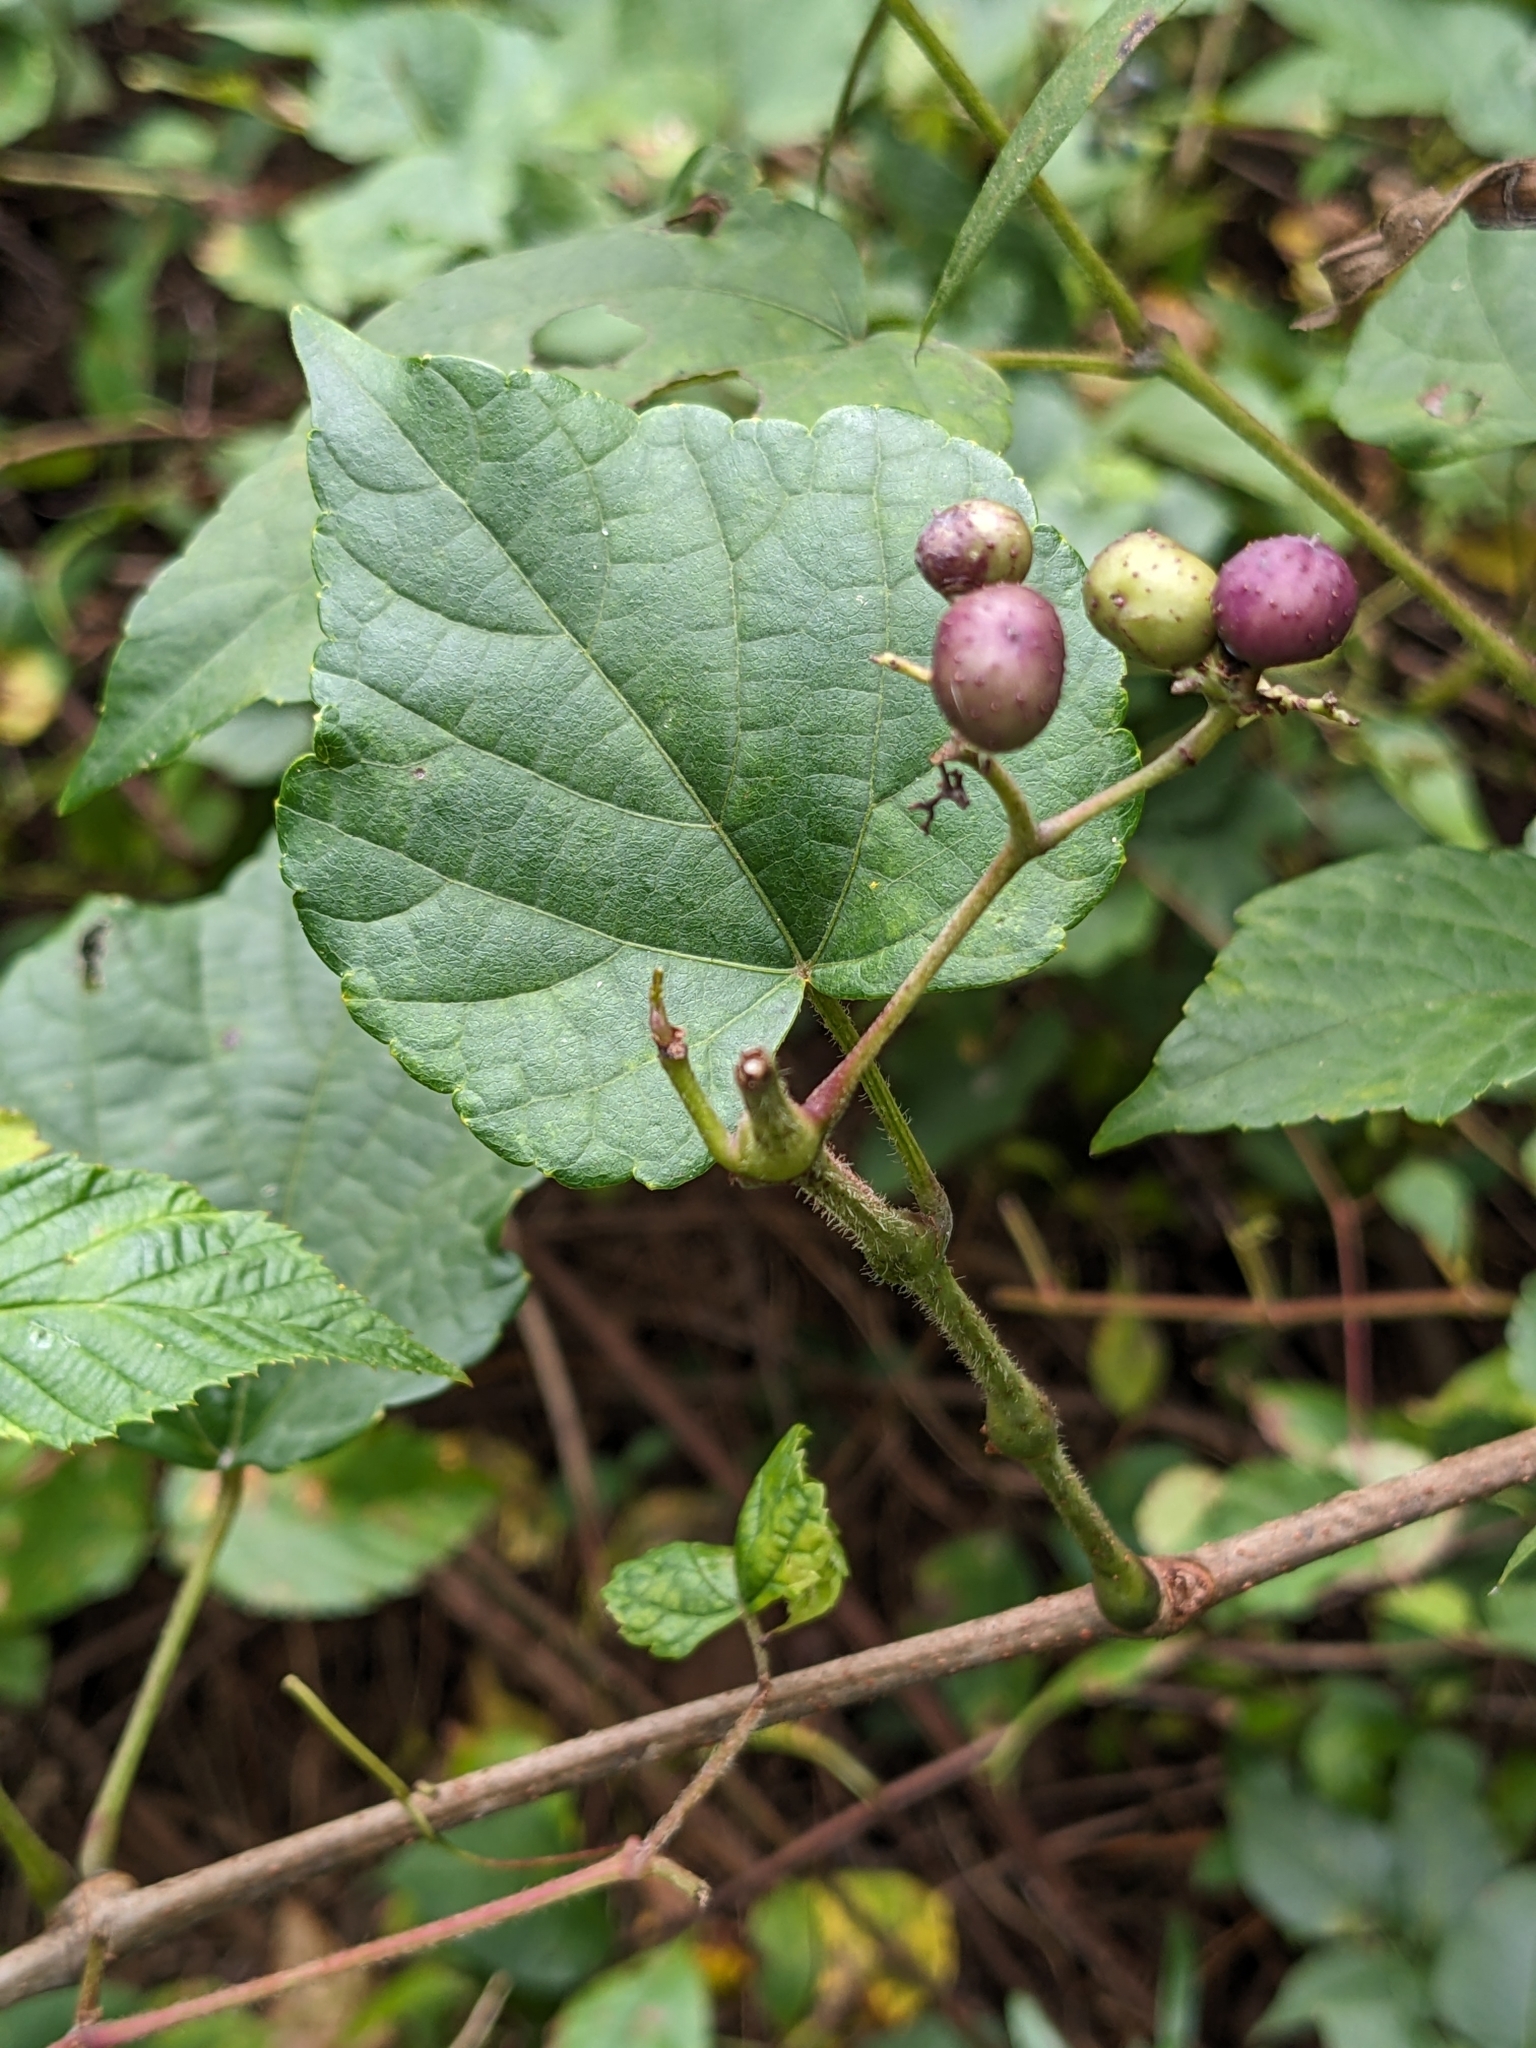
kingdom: Plantae
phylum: Tracheophyta
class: Magnoliopsida
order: Vitales
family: Vitaceae
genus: Ampelopsis
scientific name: Ampelopsis glandulosa
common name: Amur peppervine
